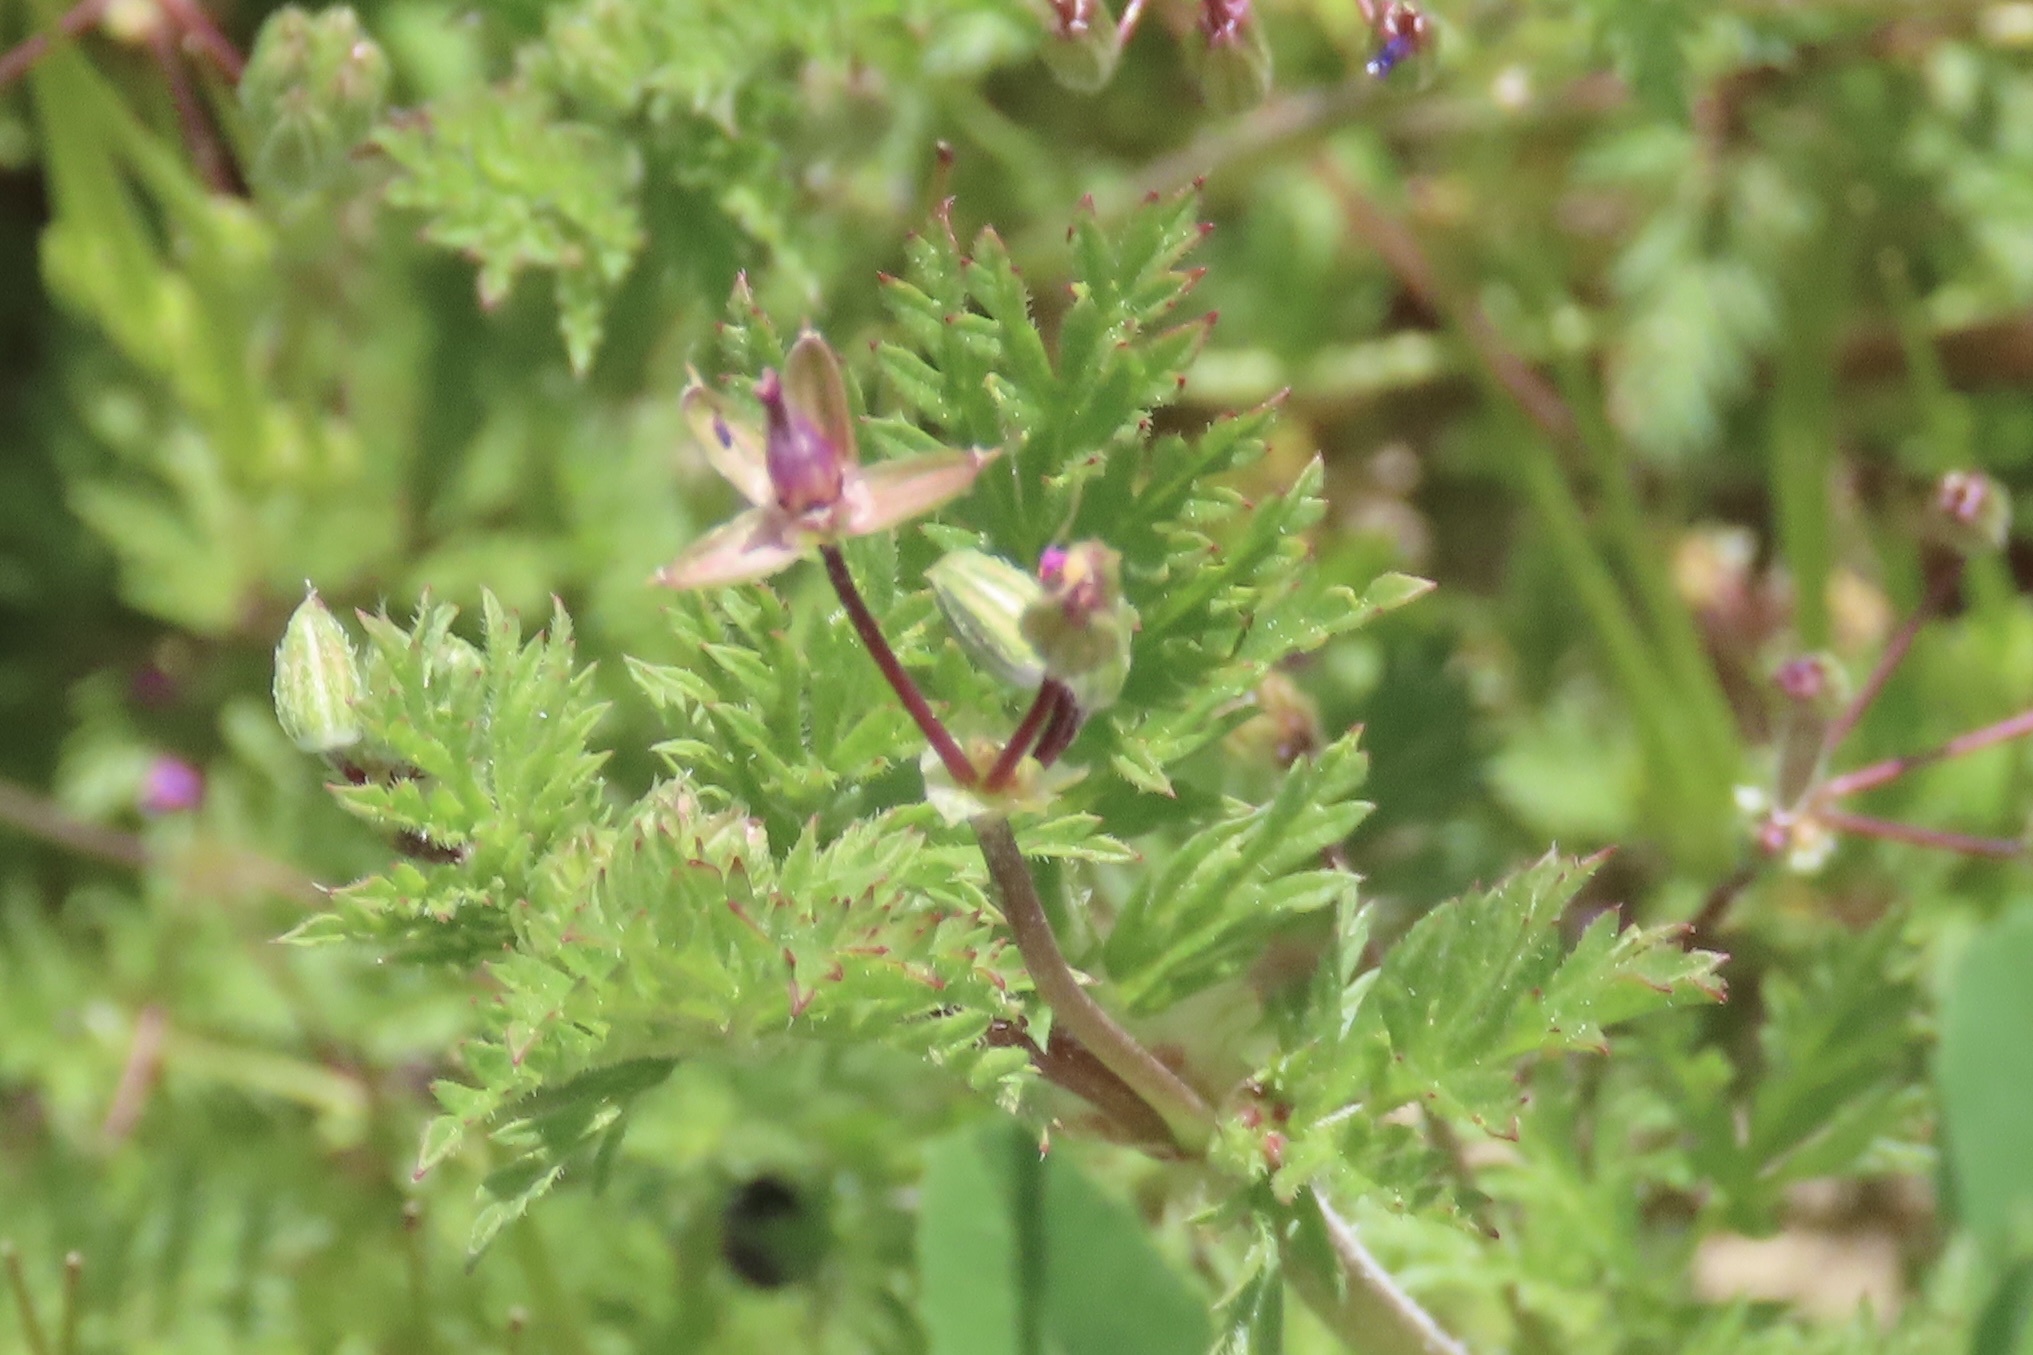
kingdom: Plantae
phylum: Tracheophyta
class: Magnoliopsida
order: Geraniales
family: Geraniaceae
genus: Erodium
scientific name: Erodium cicutarium
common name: Common stork's-bill
